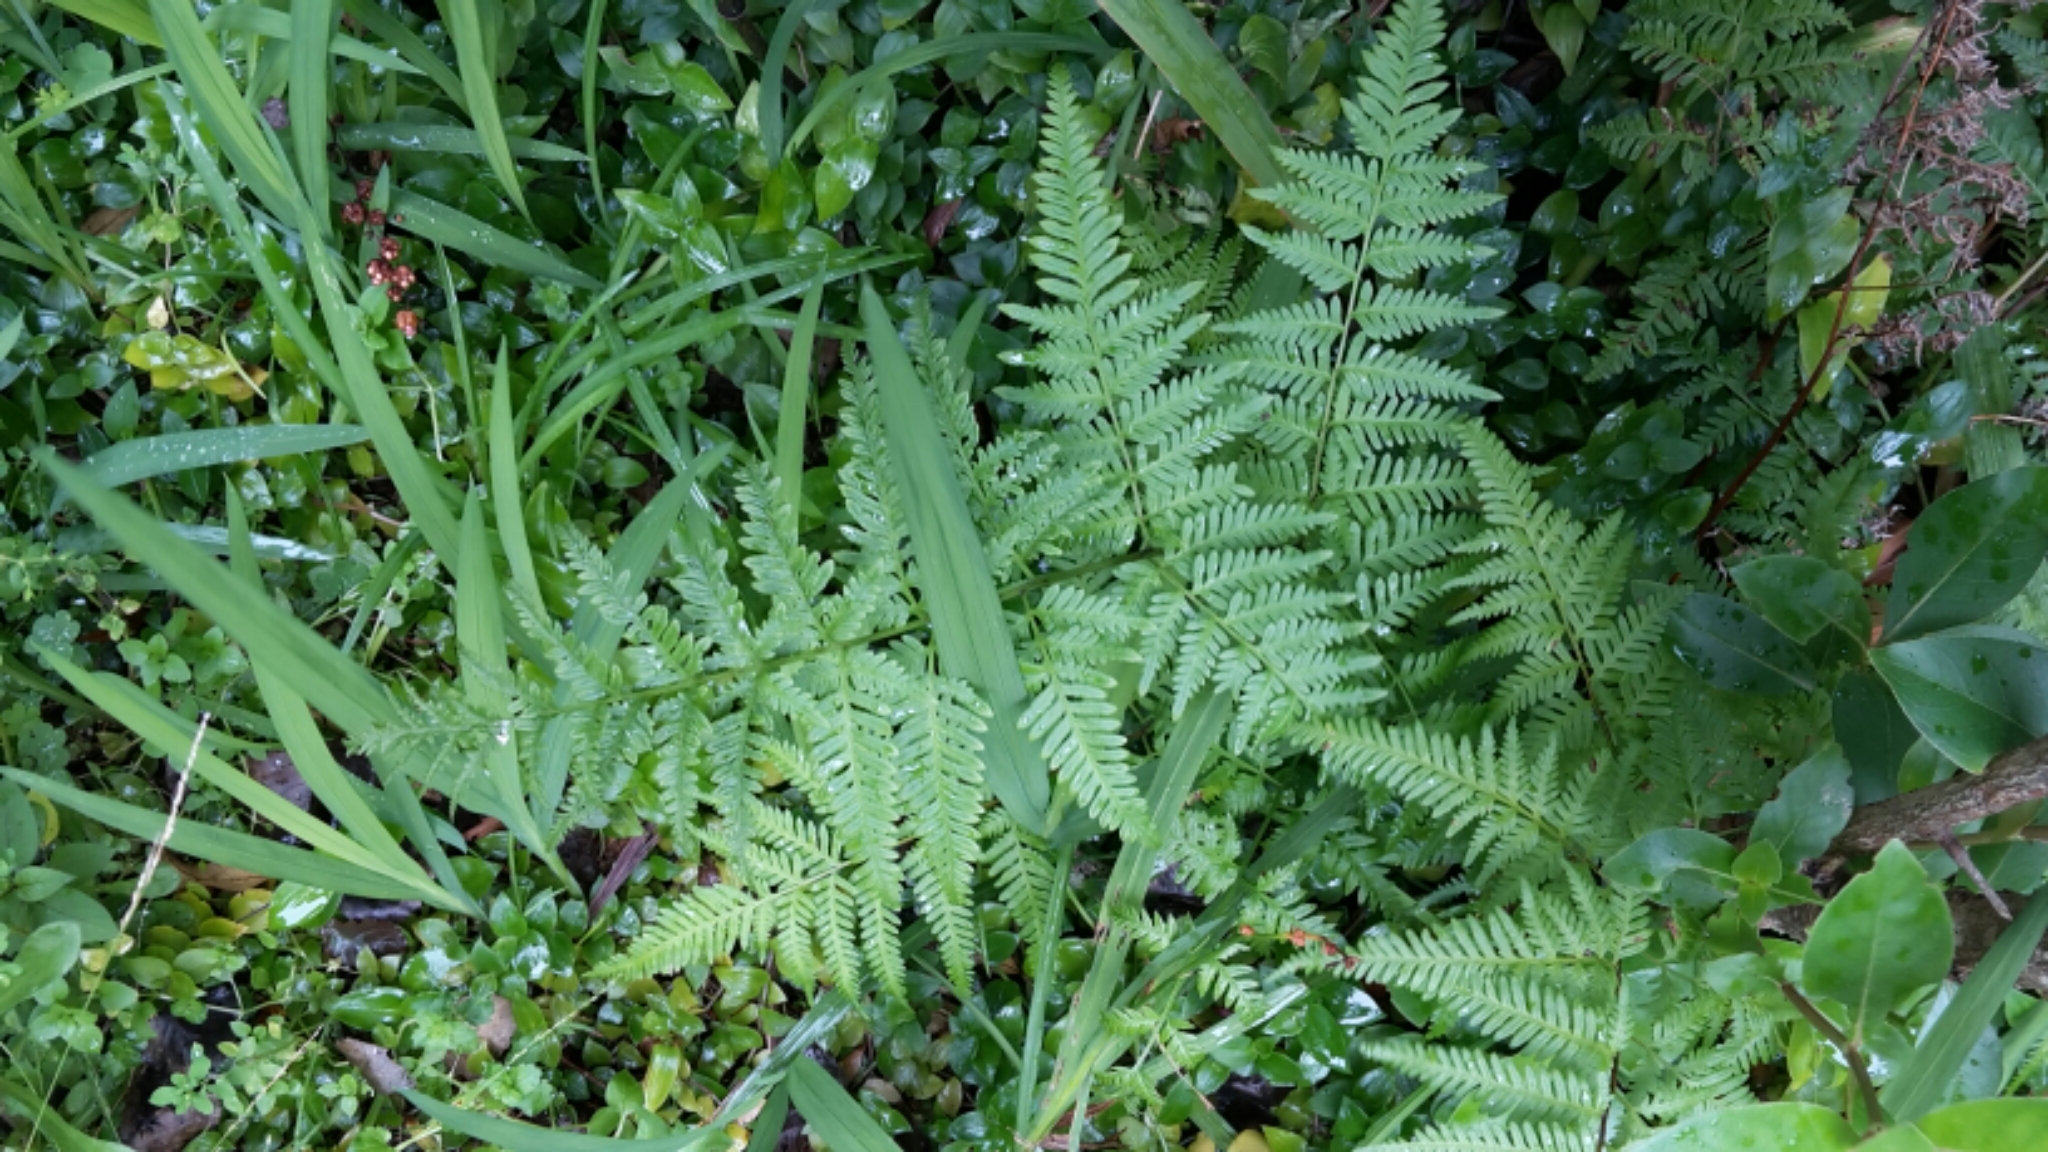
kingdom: Plantae
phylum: Tracheophyta
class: Polypodiopsida
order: Polypodiales
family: Pteridaceae
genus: Pteris
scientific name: Pteris tremula
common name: Australian brake
